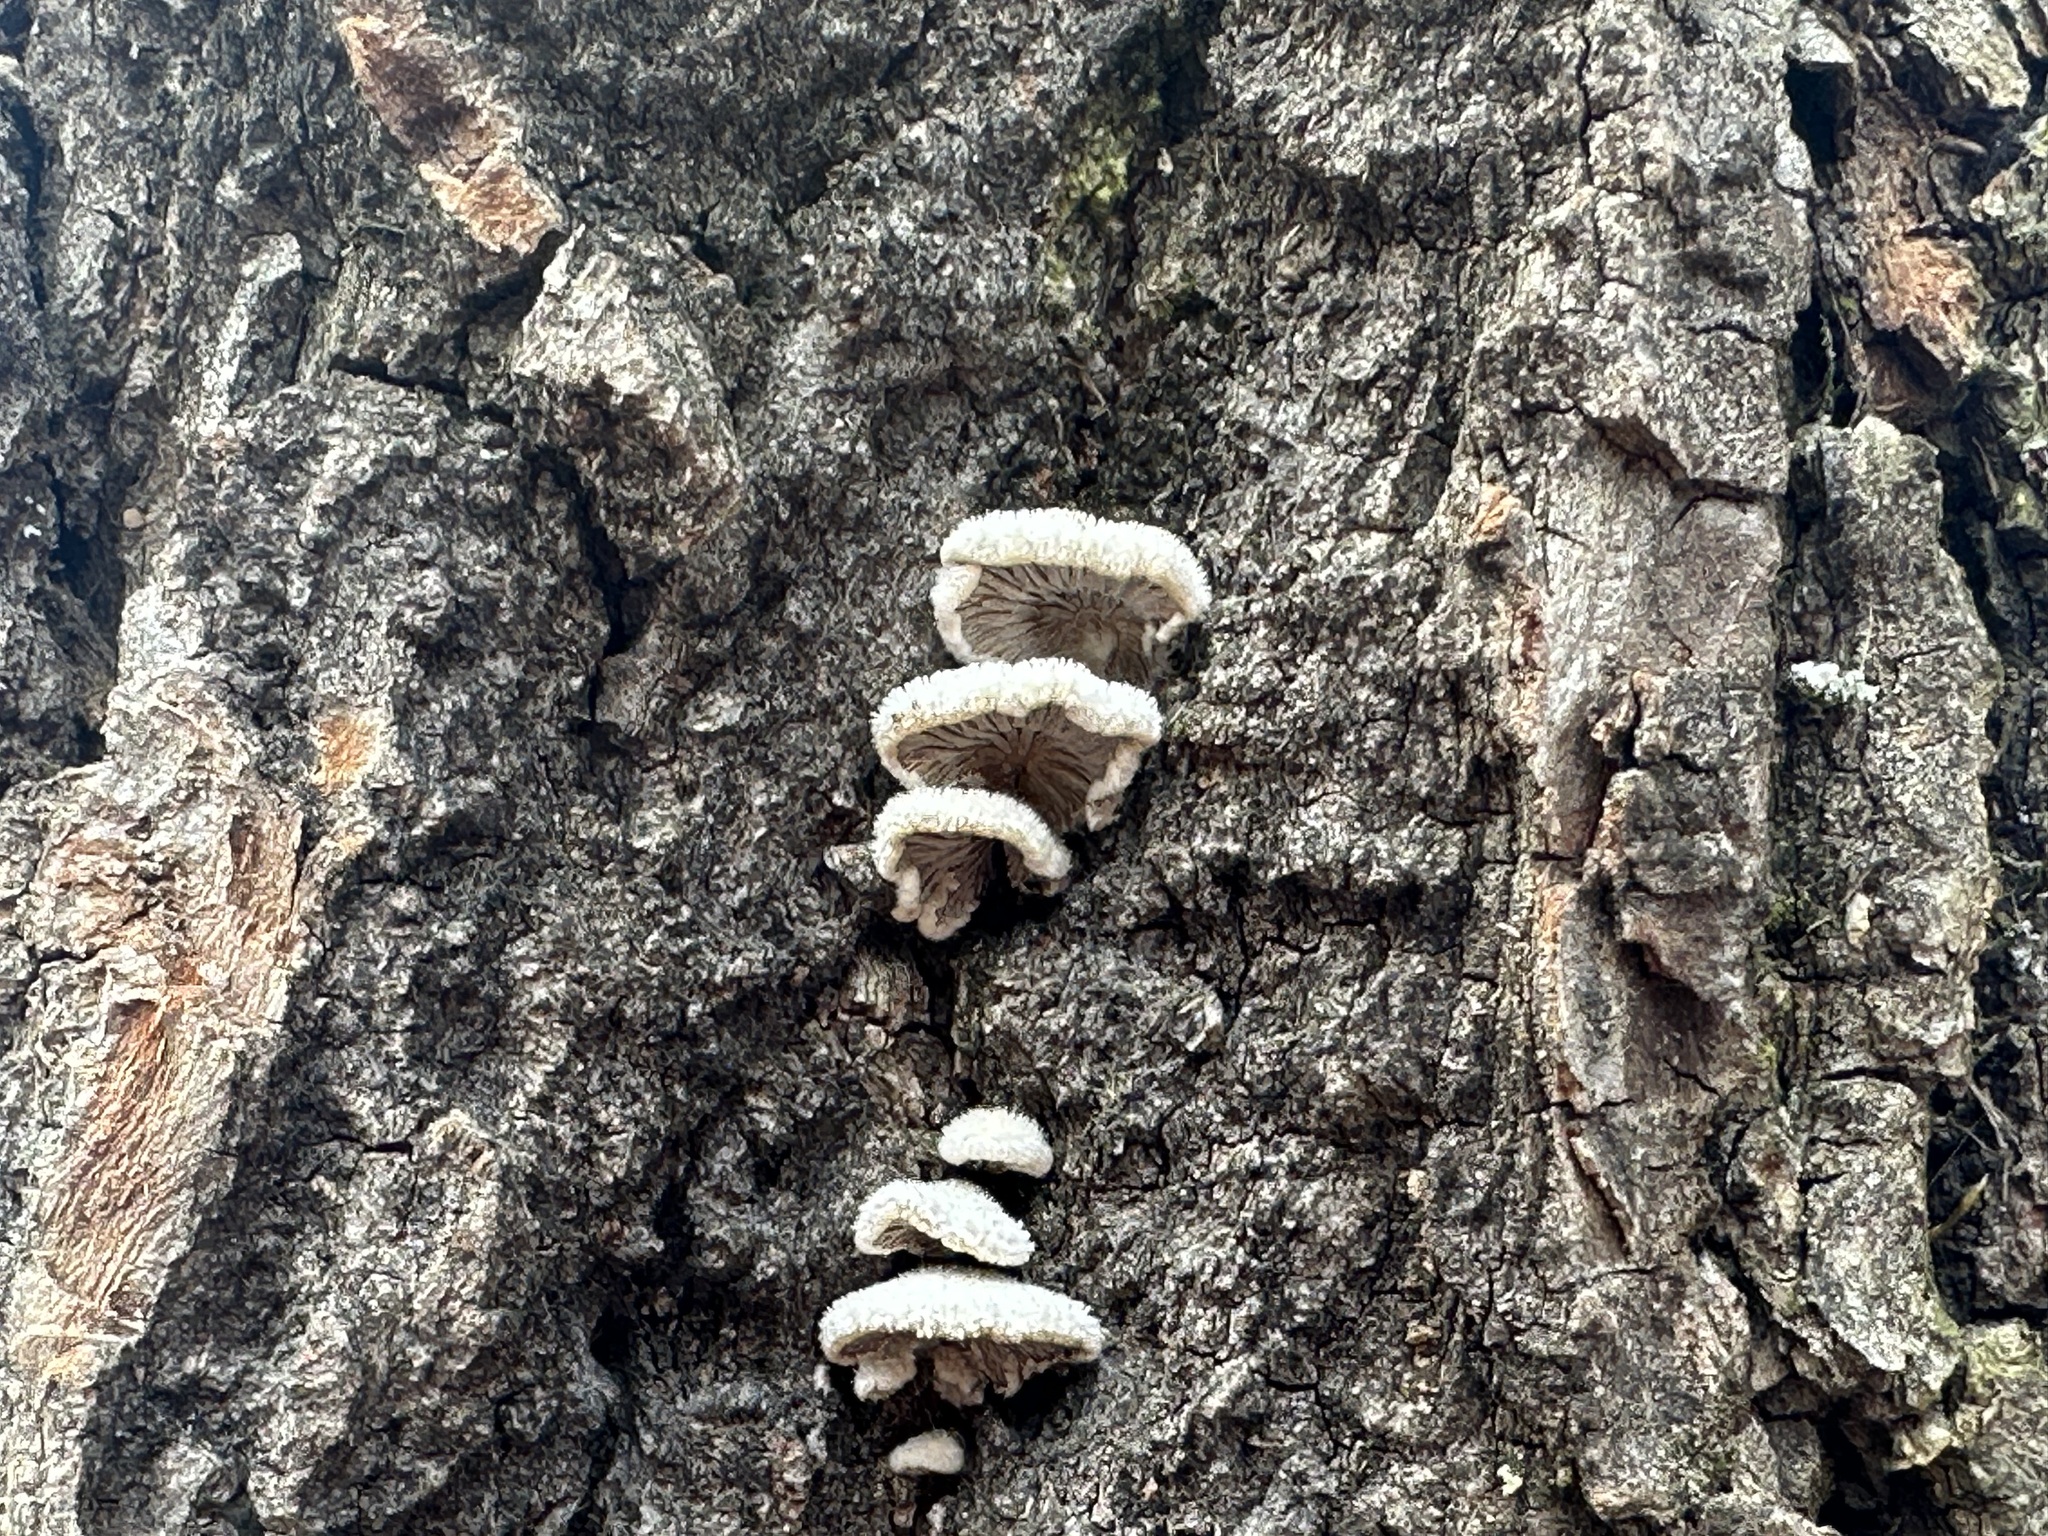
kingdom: Fungi
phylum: Basidiomycota
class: Agaricomycetes
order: Agaricales
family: Schizophyllaceae
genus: Schizophyllum
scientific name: Schizophyllum commune
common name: Common porecrust
